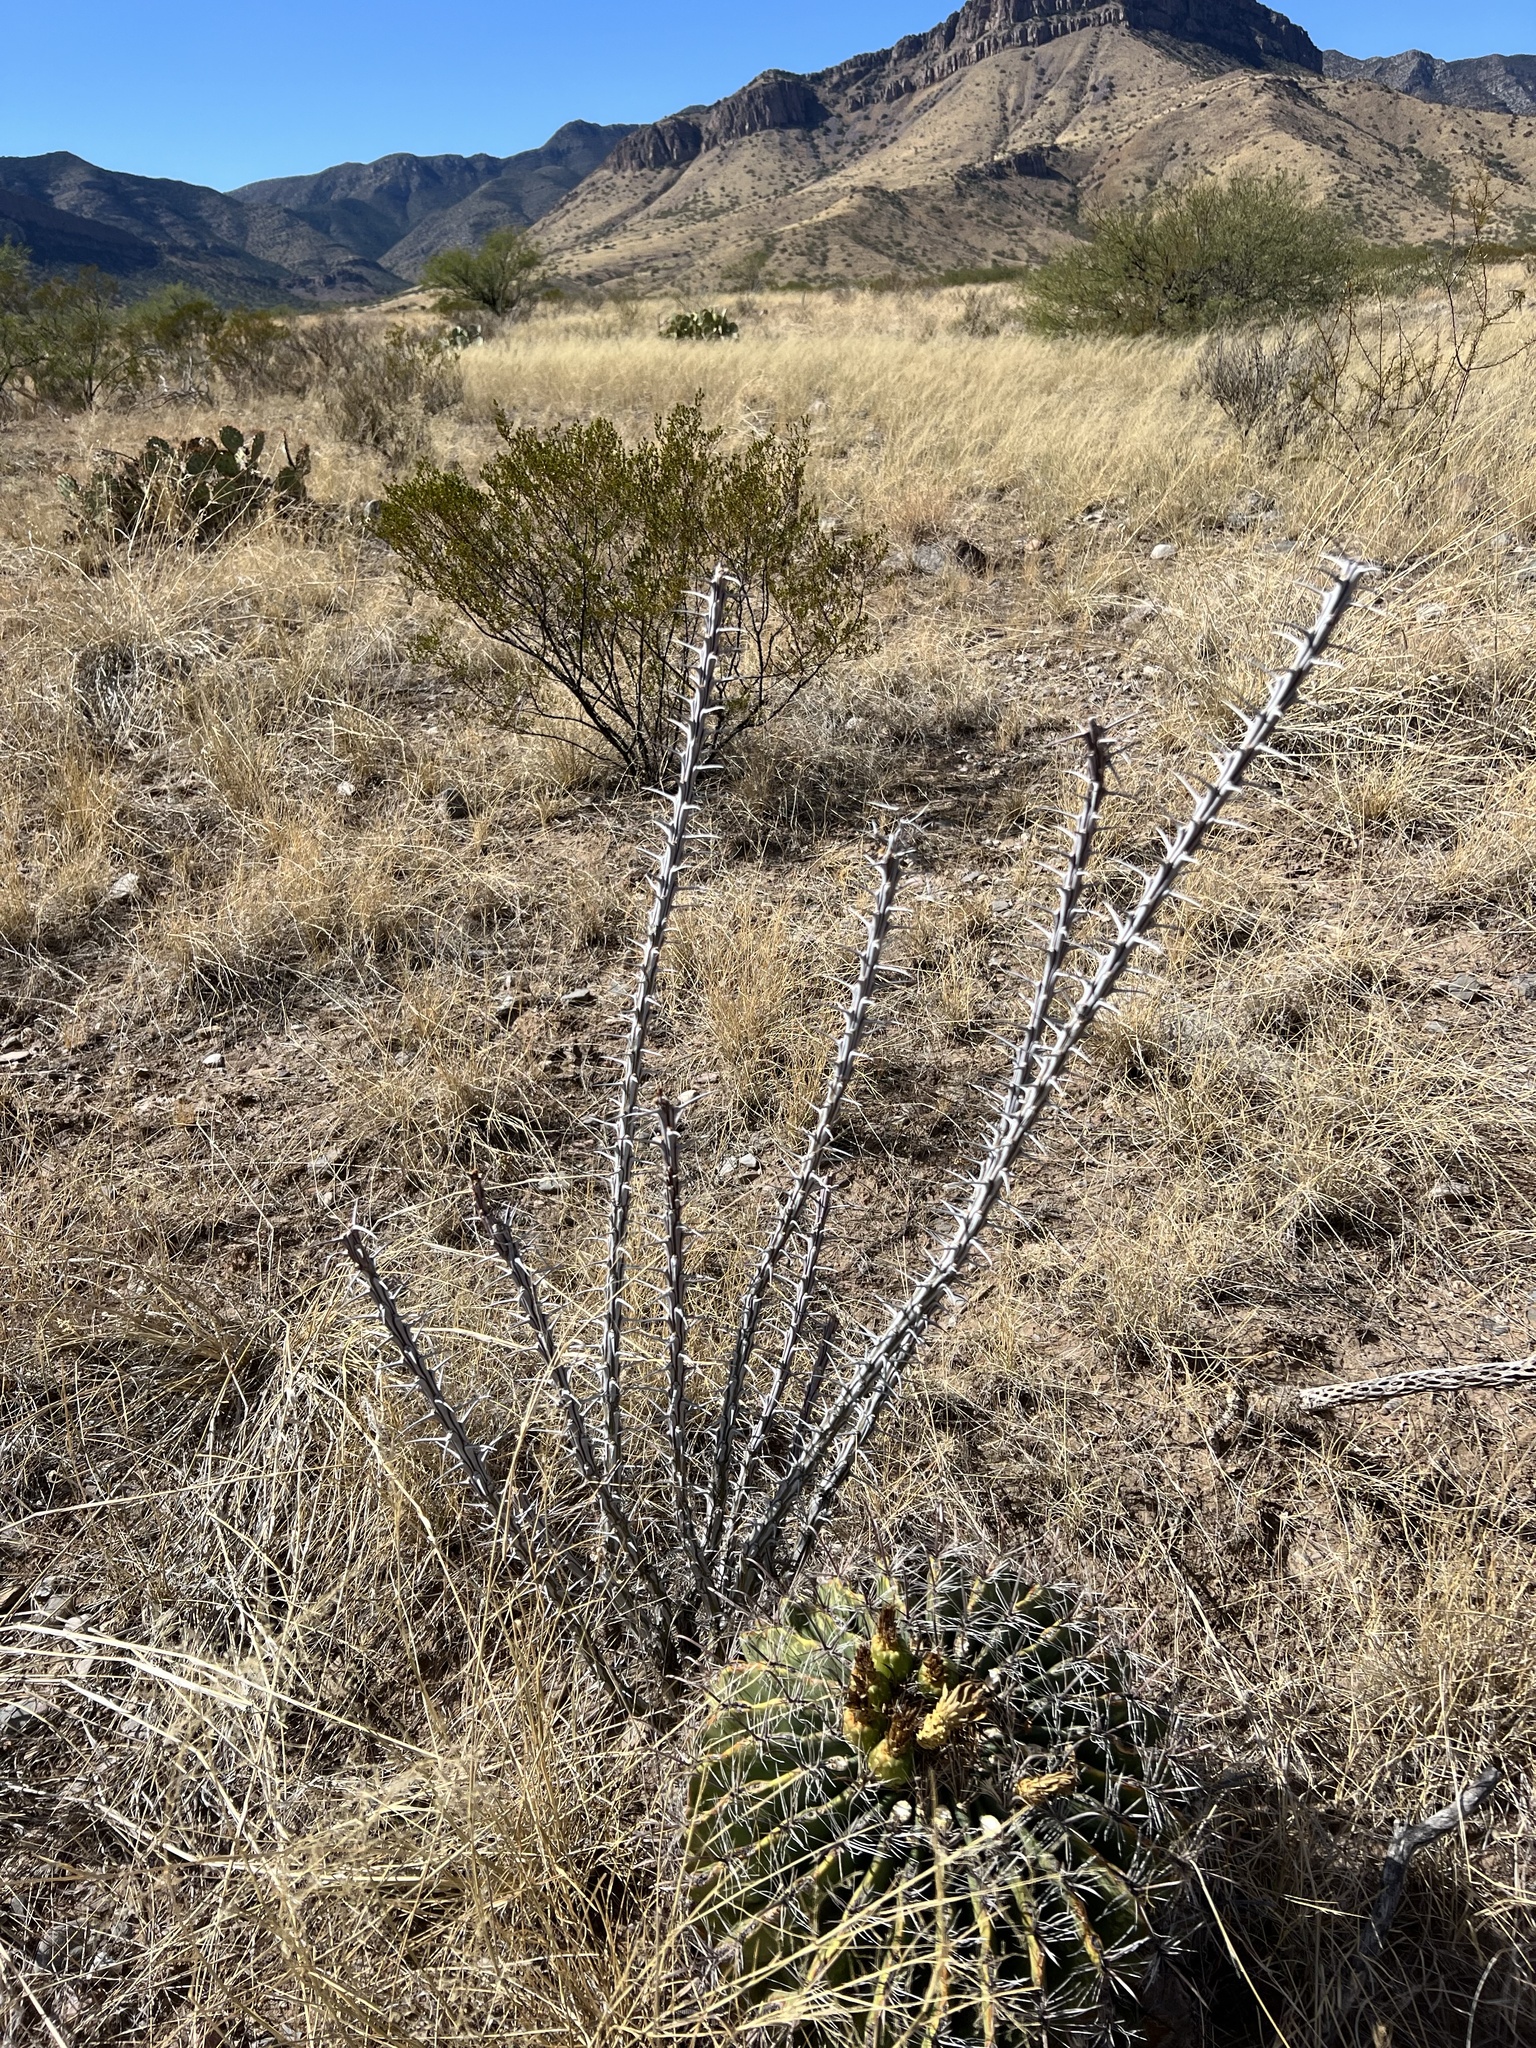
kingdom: Plantae
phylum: Tracheophyta
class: Magnoliopsida
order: Ericales
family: Fouquieriaceae
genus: Fouquieria
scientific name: Fouquieria splendens
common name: Vine-cactus
